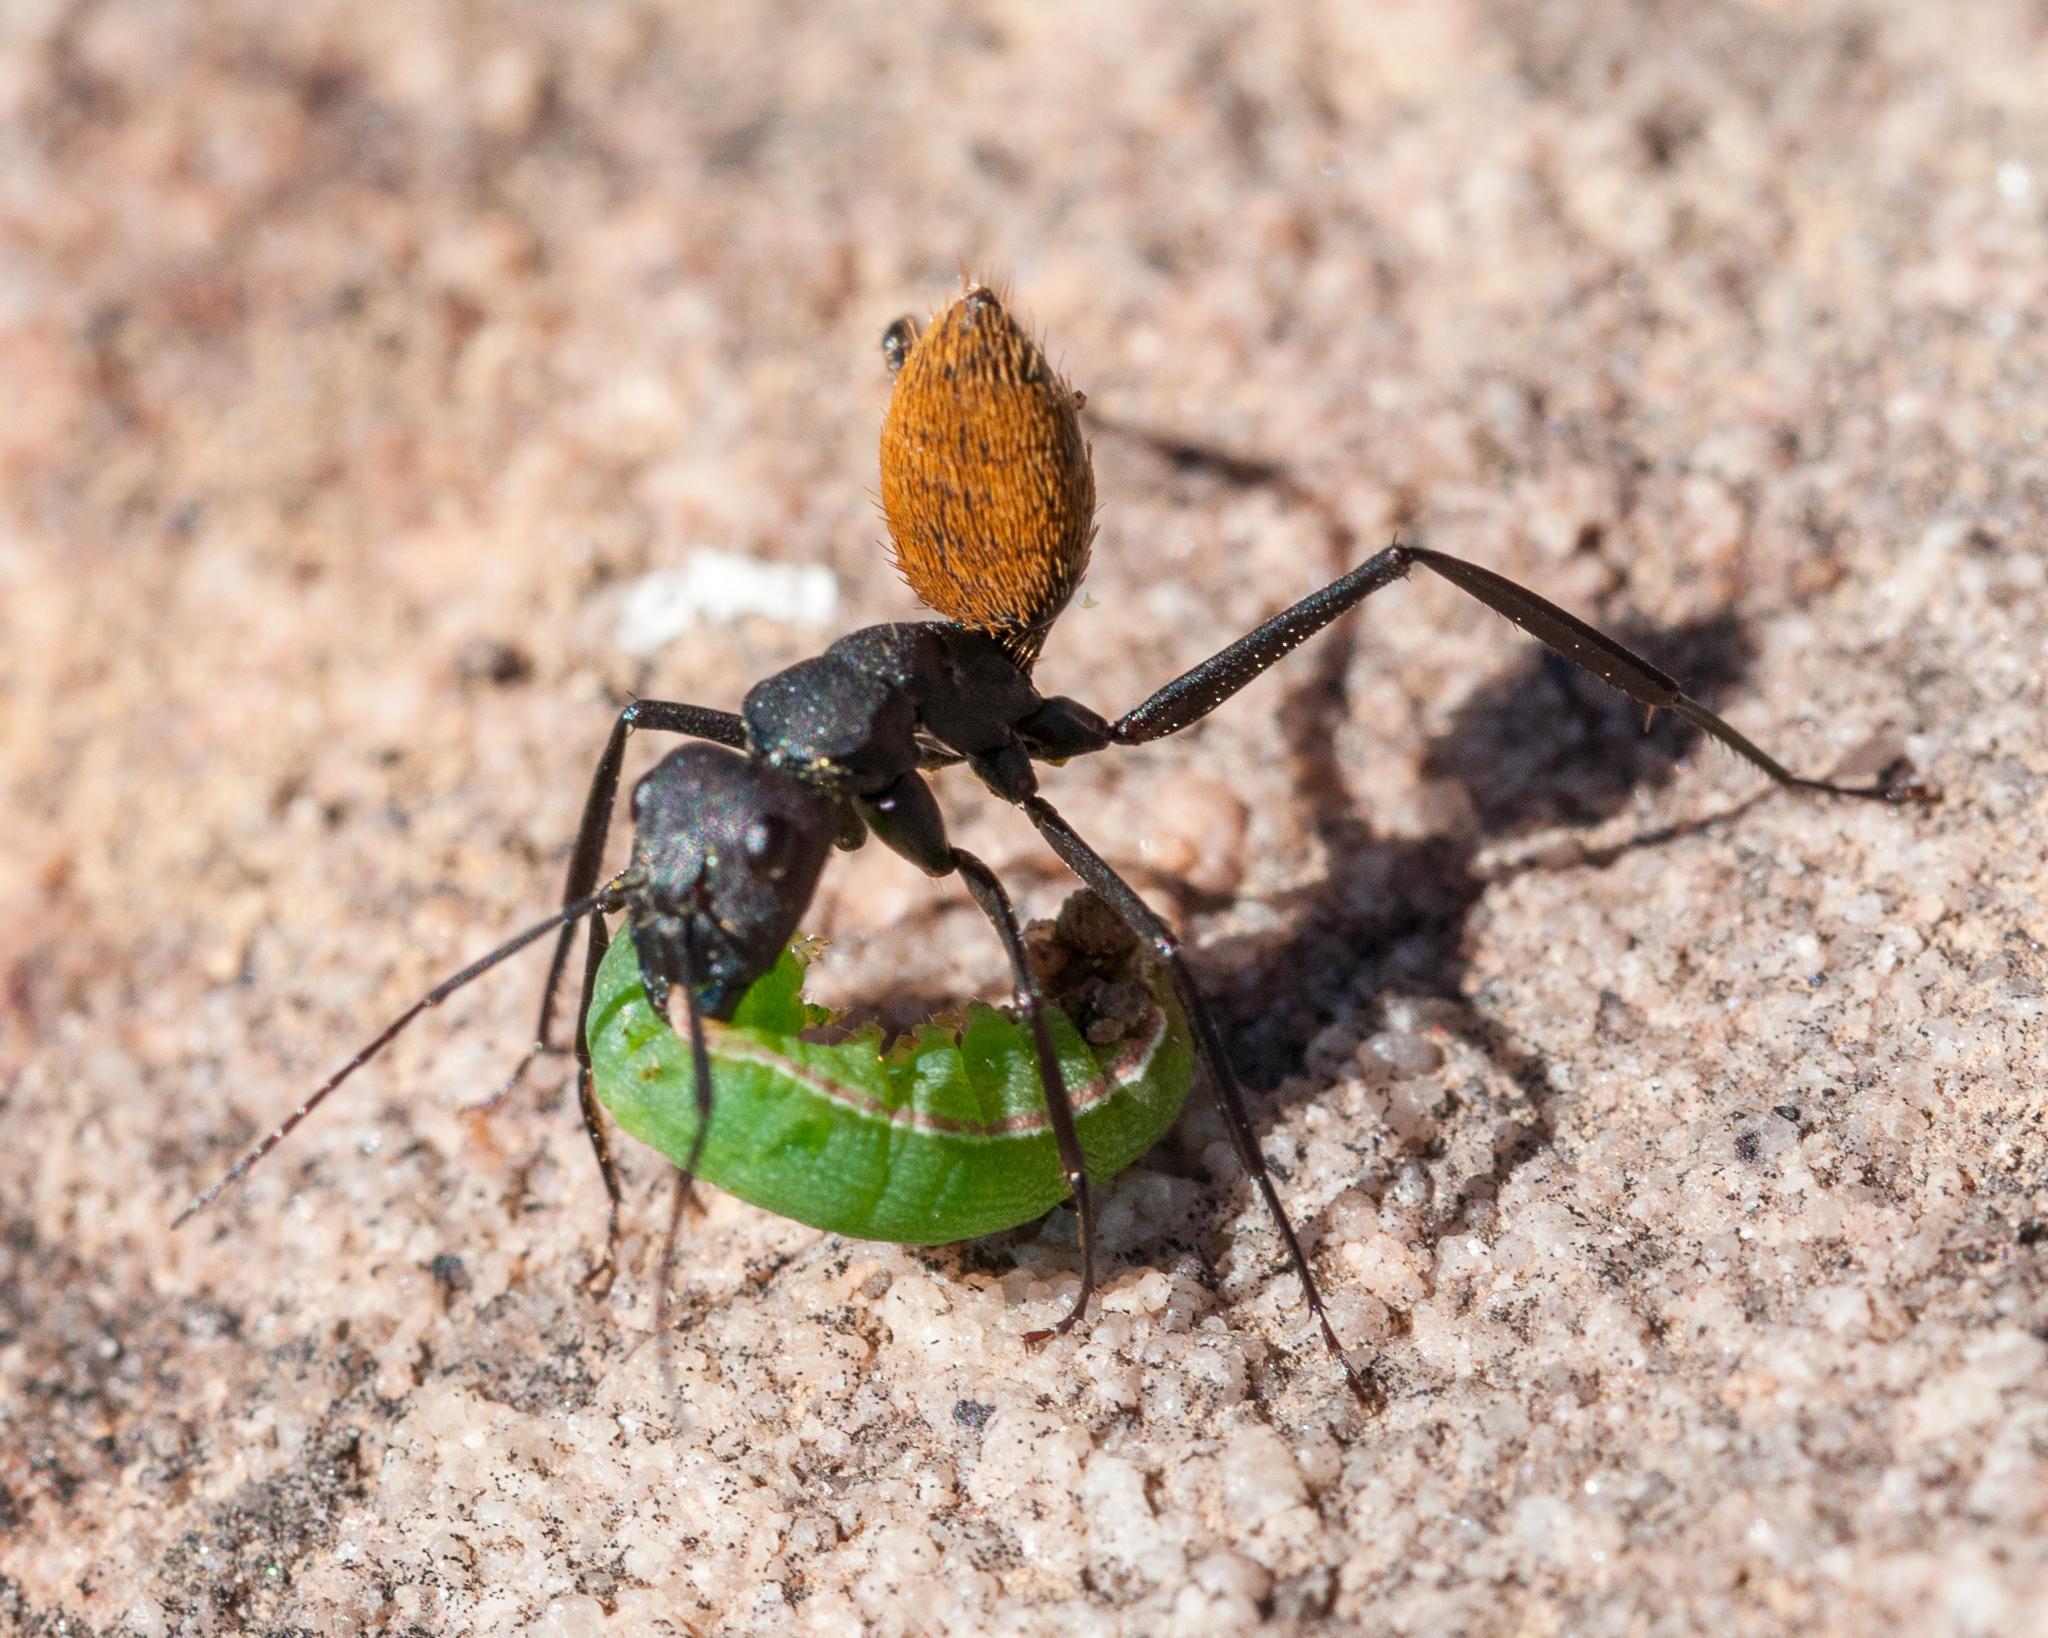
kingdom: Animalia
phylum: Arthropoda
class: Insecta
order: Hymenoptera
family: Formicidae
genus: Camponotus
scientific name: Camponotus fulvopilosus
